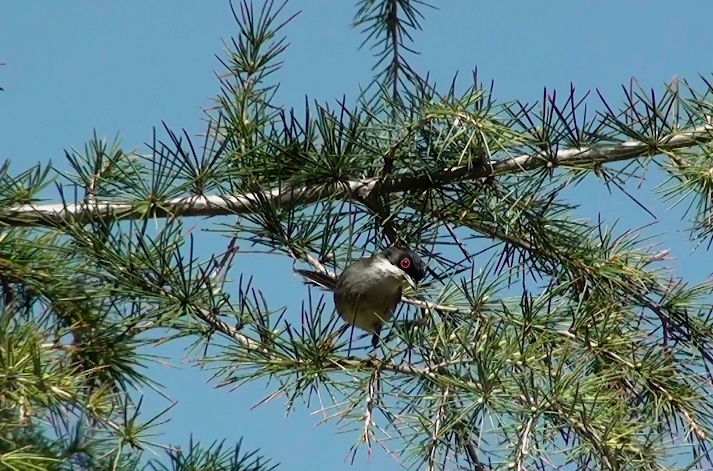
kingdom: Animalia
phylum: Chordata
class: Aves
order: Passeriformes
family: Sylviidae
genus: Curruca
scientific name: Curruca melanocephala
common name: Sardinian warbler
